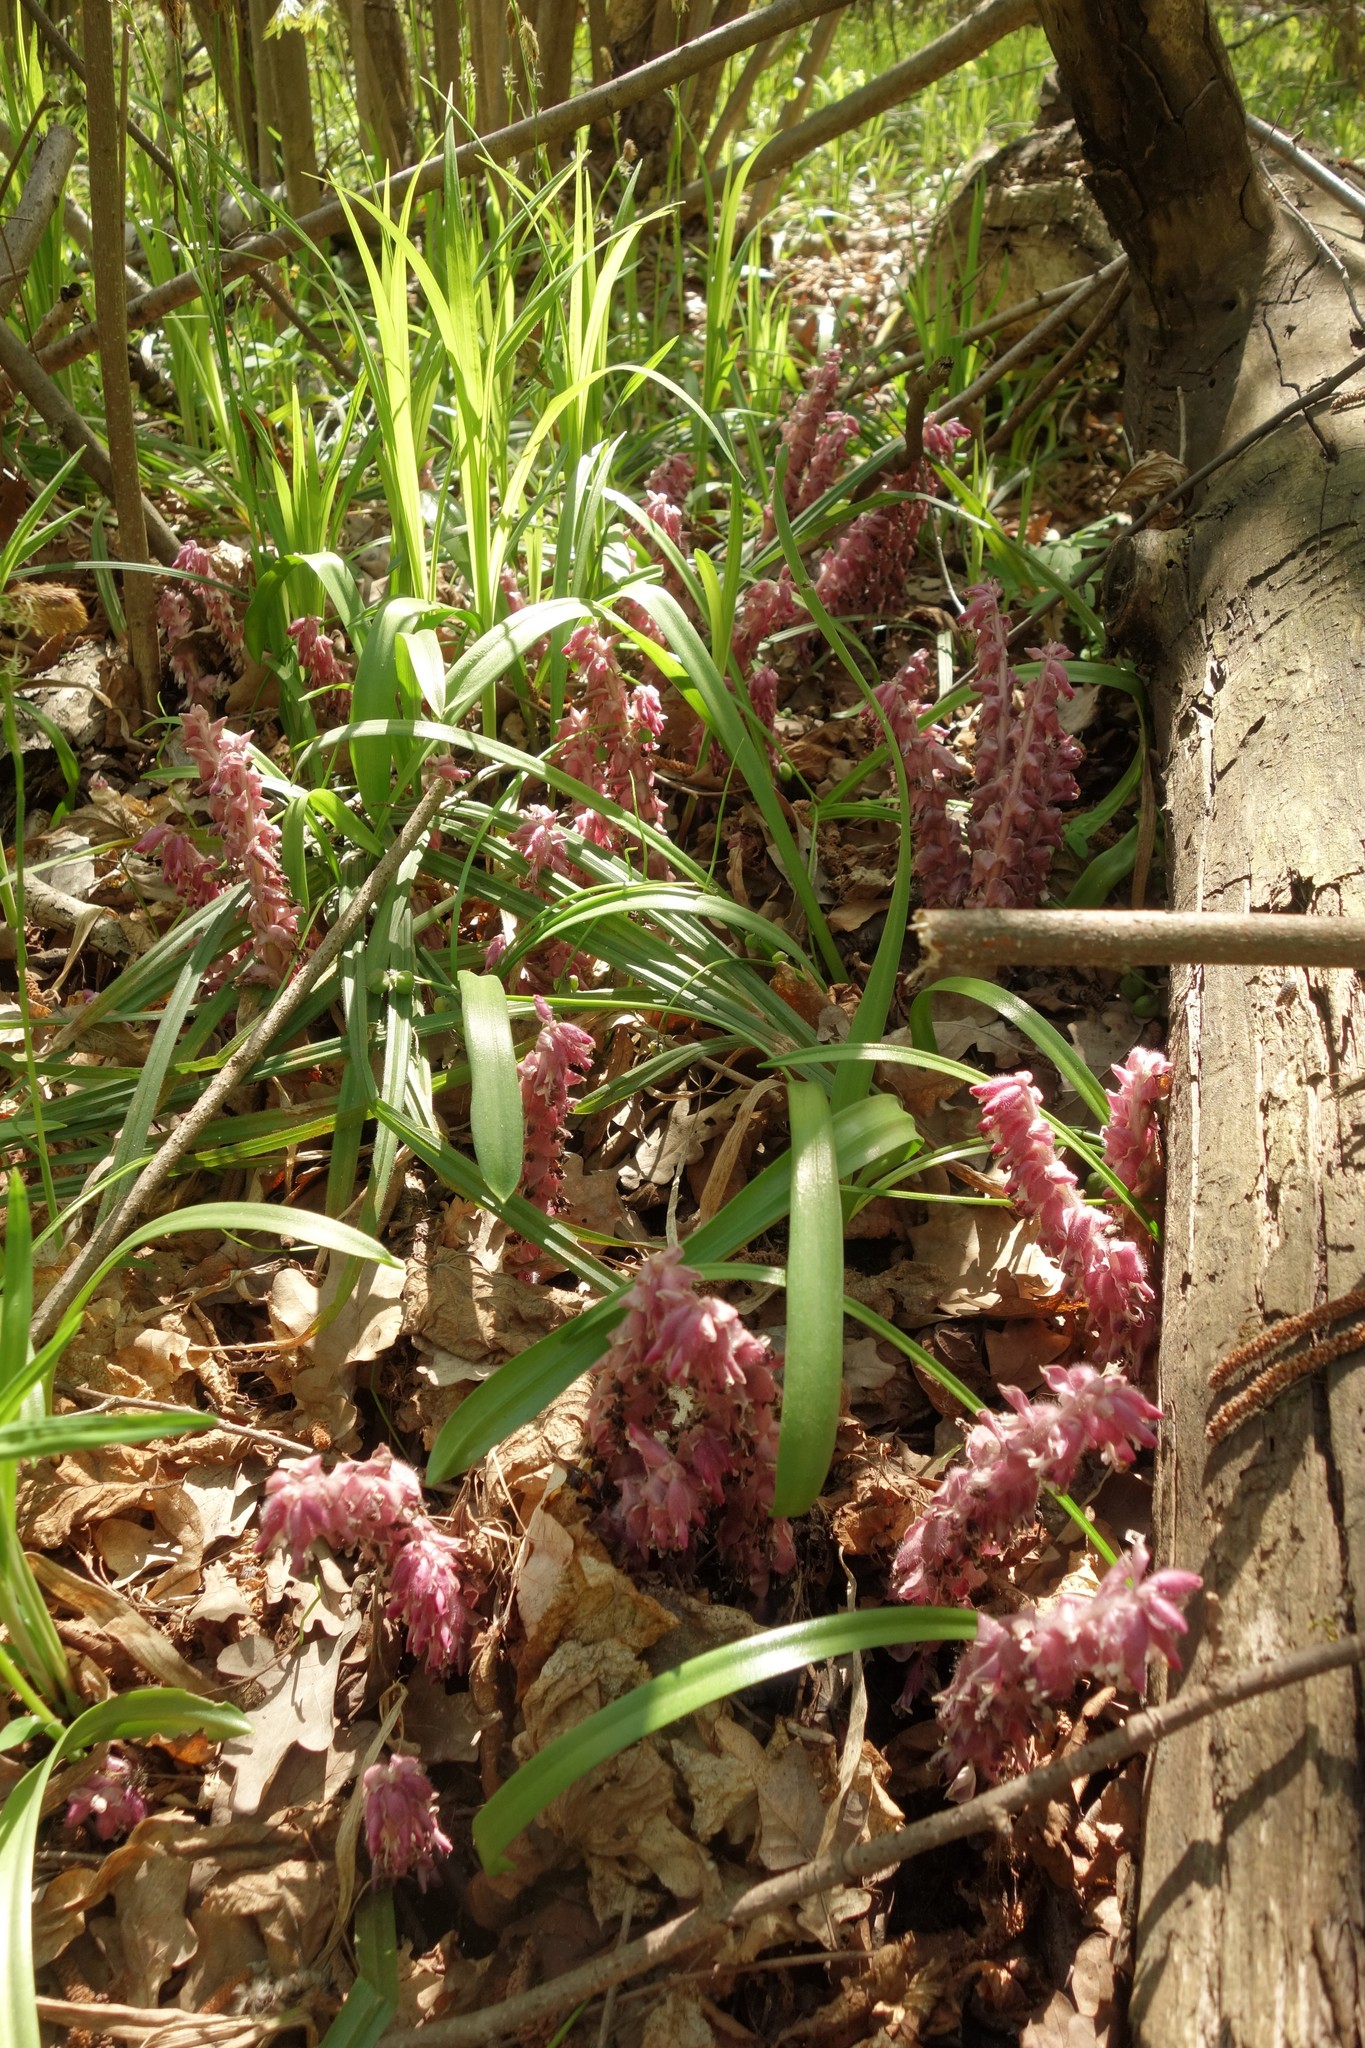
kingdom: Plantae
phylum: Tracheophyta
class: Magnoliopsida
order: Lamiales
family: Orobanchaceae
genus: Lathraea
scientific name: Lathraea squamaria
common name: Toothwort
